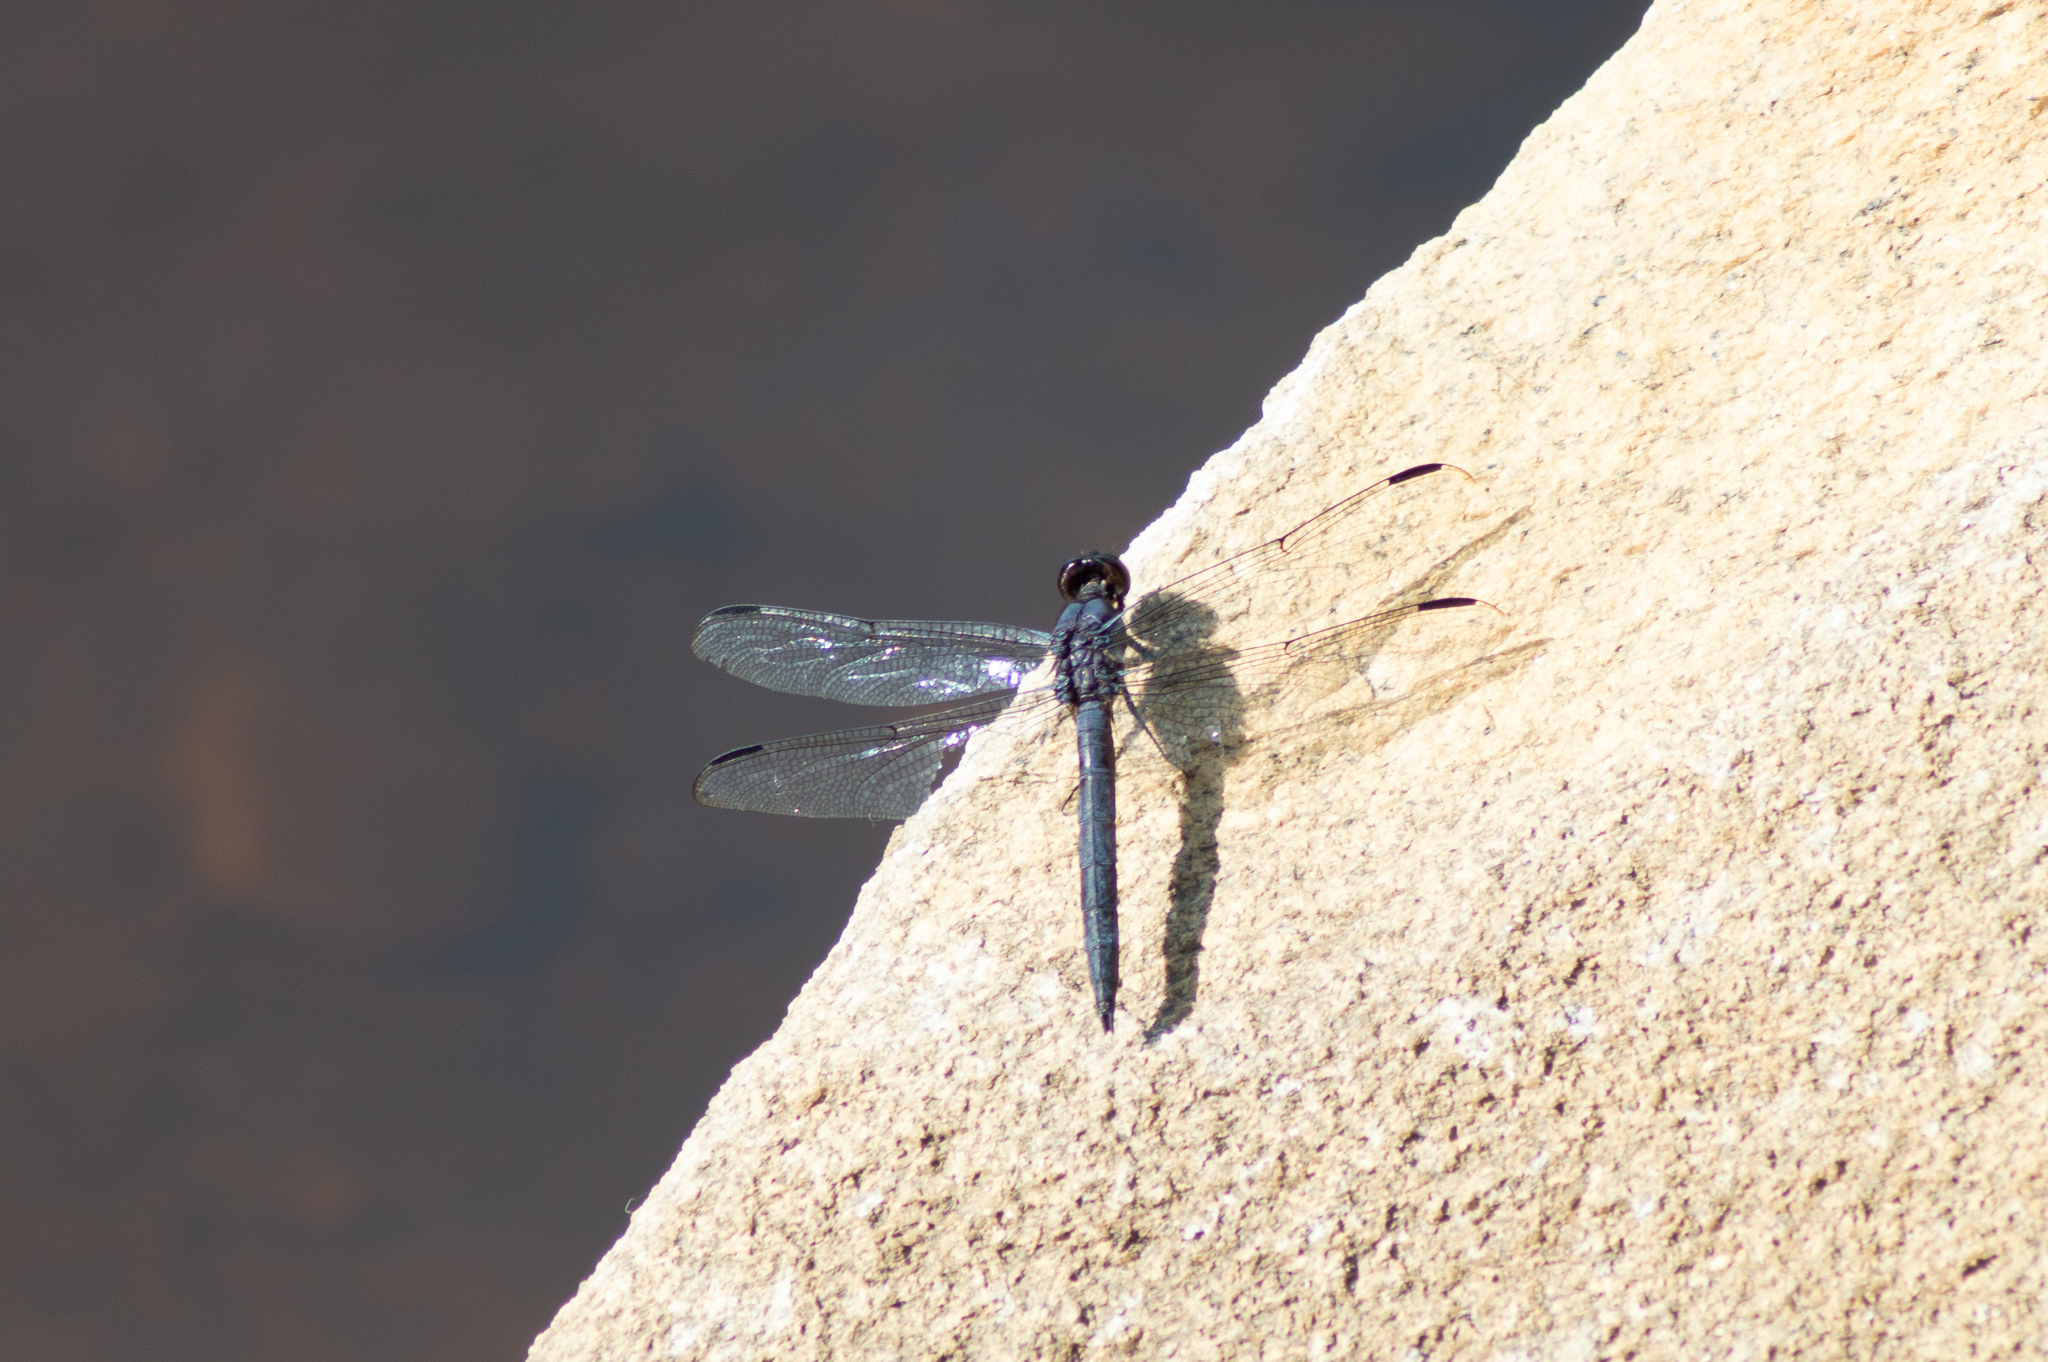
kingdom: Animalia
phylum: Arthropoda
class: Insecta
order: Odonata
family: Libellulidae
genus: Libellula
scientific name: Libellula incesta
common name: Slaty skimmer
